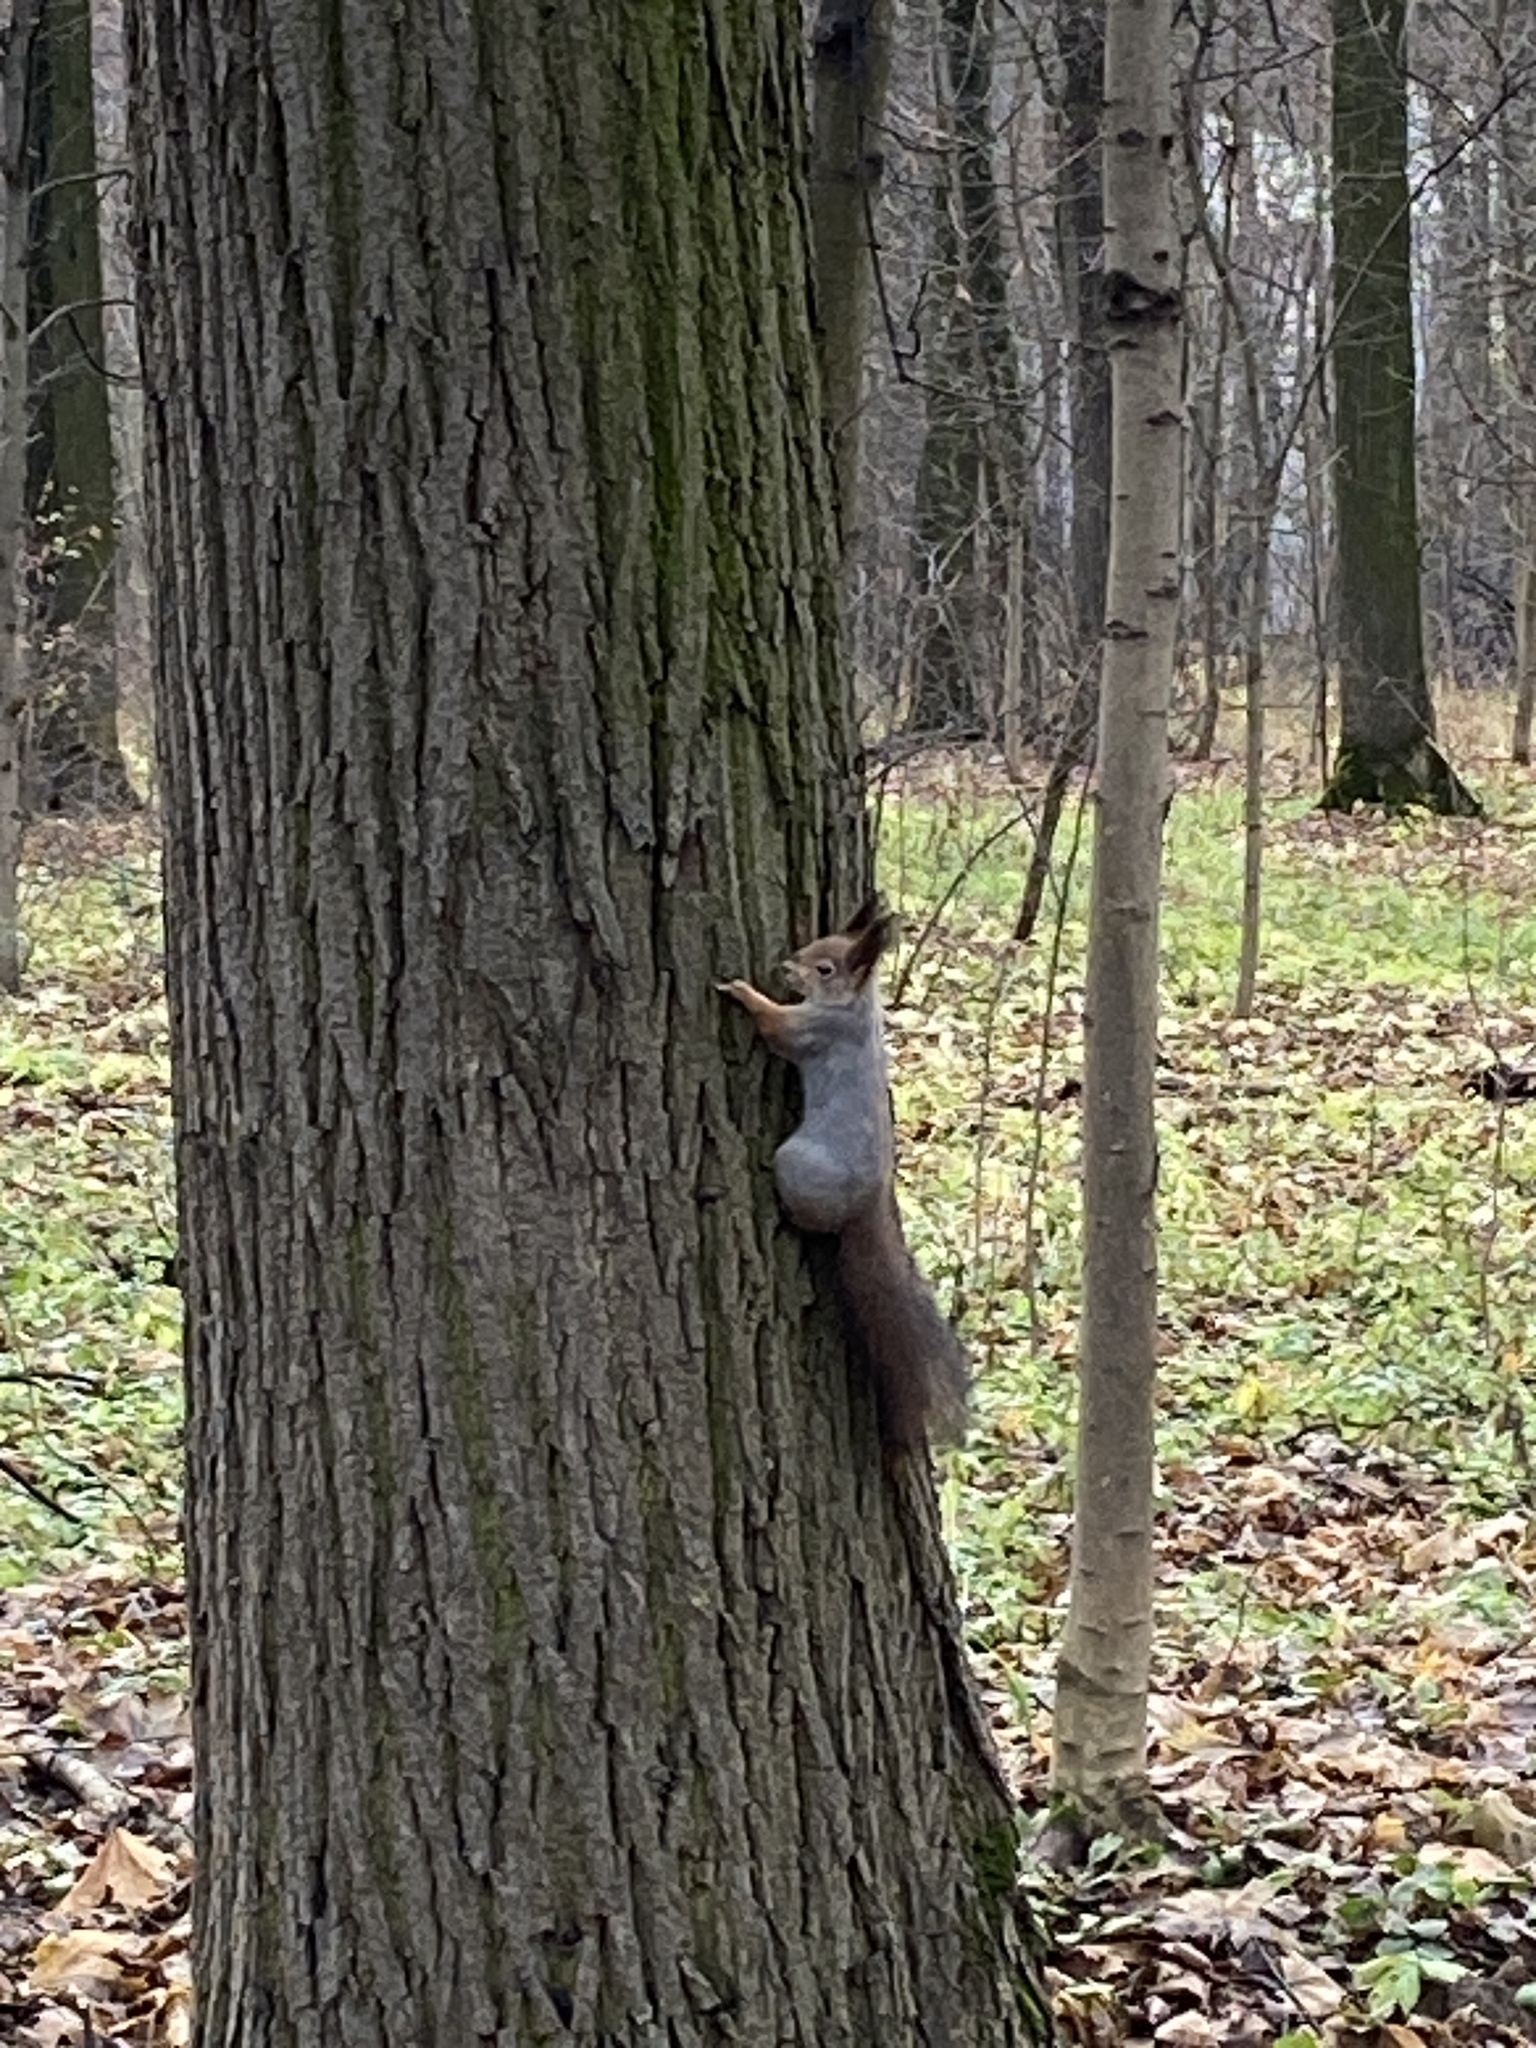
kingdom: Animalia
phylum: Chordata
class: Mammalia
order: Rodentia
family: Sciuridae
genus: Sciurus
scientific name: Sciurus vulgaris
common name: Eurasian red squirrel
